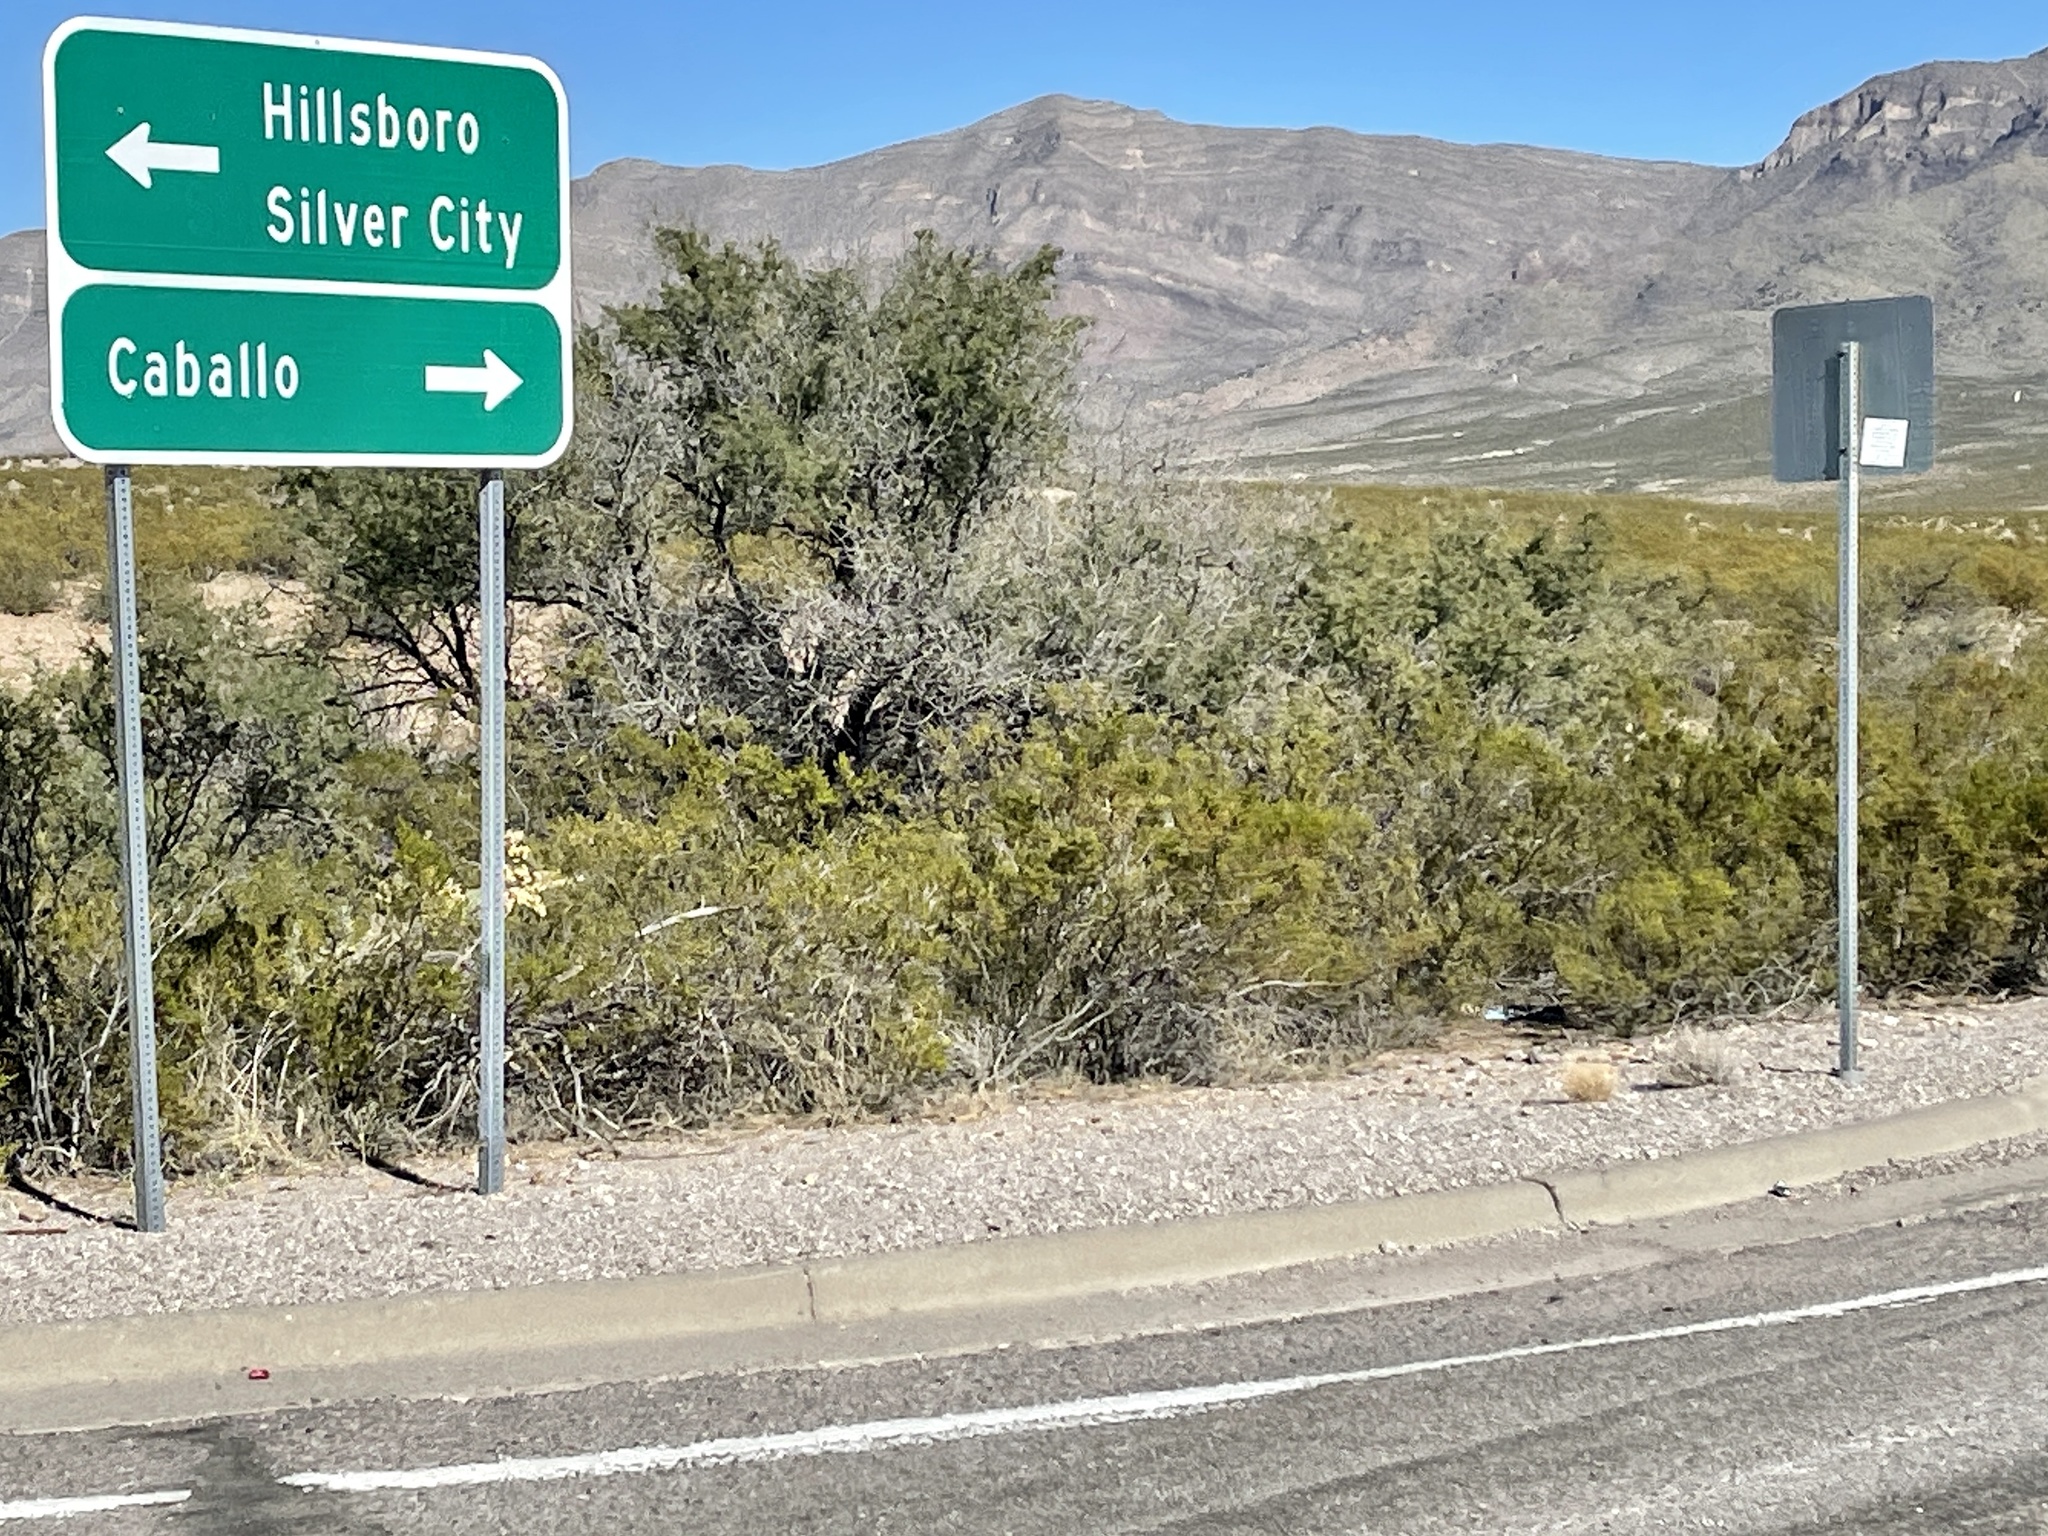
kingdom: Plantae
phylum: Tracheophyta
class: Magnoliopsida
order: Zygophyllales
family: Zygophyllaceae
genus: Larrea
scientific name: Larrea tridentata
